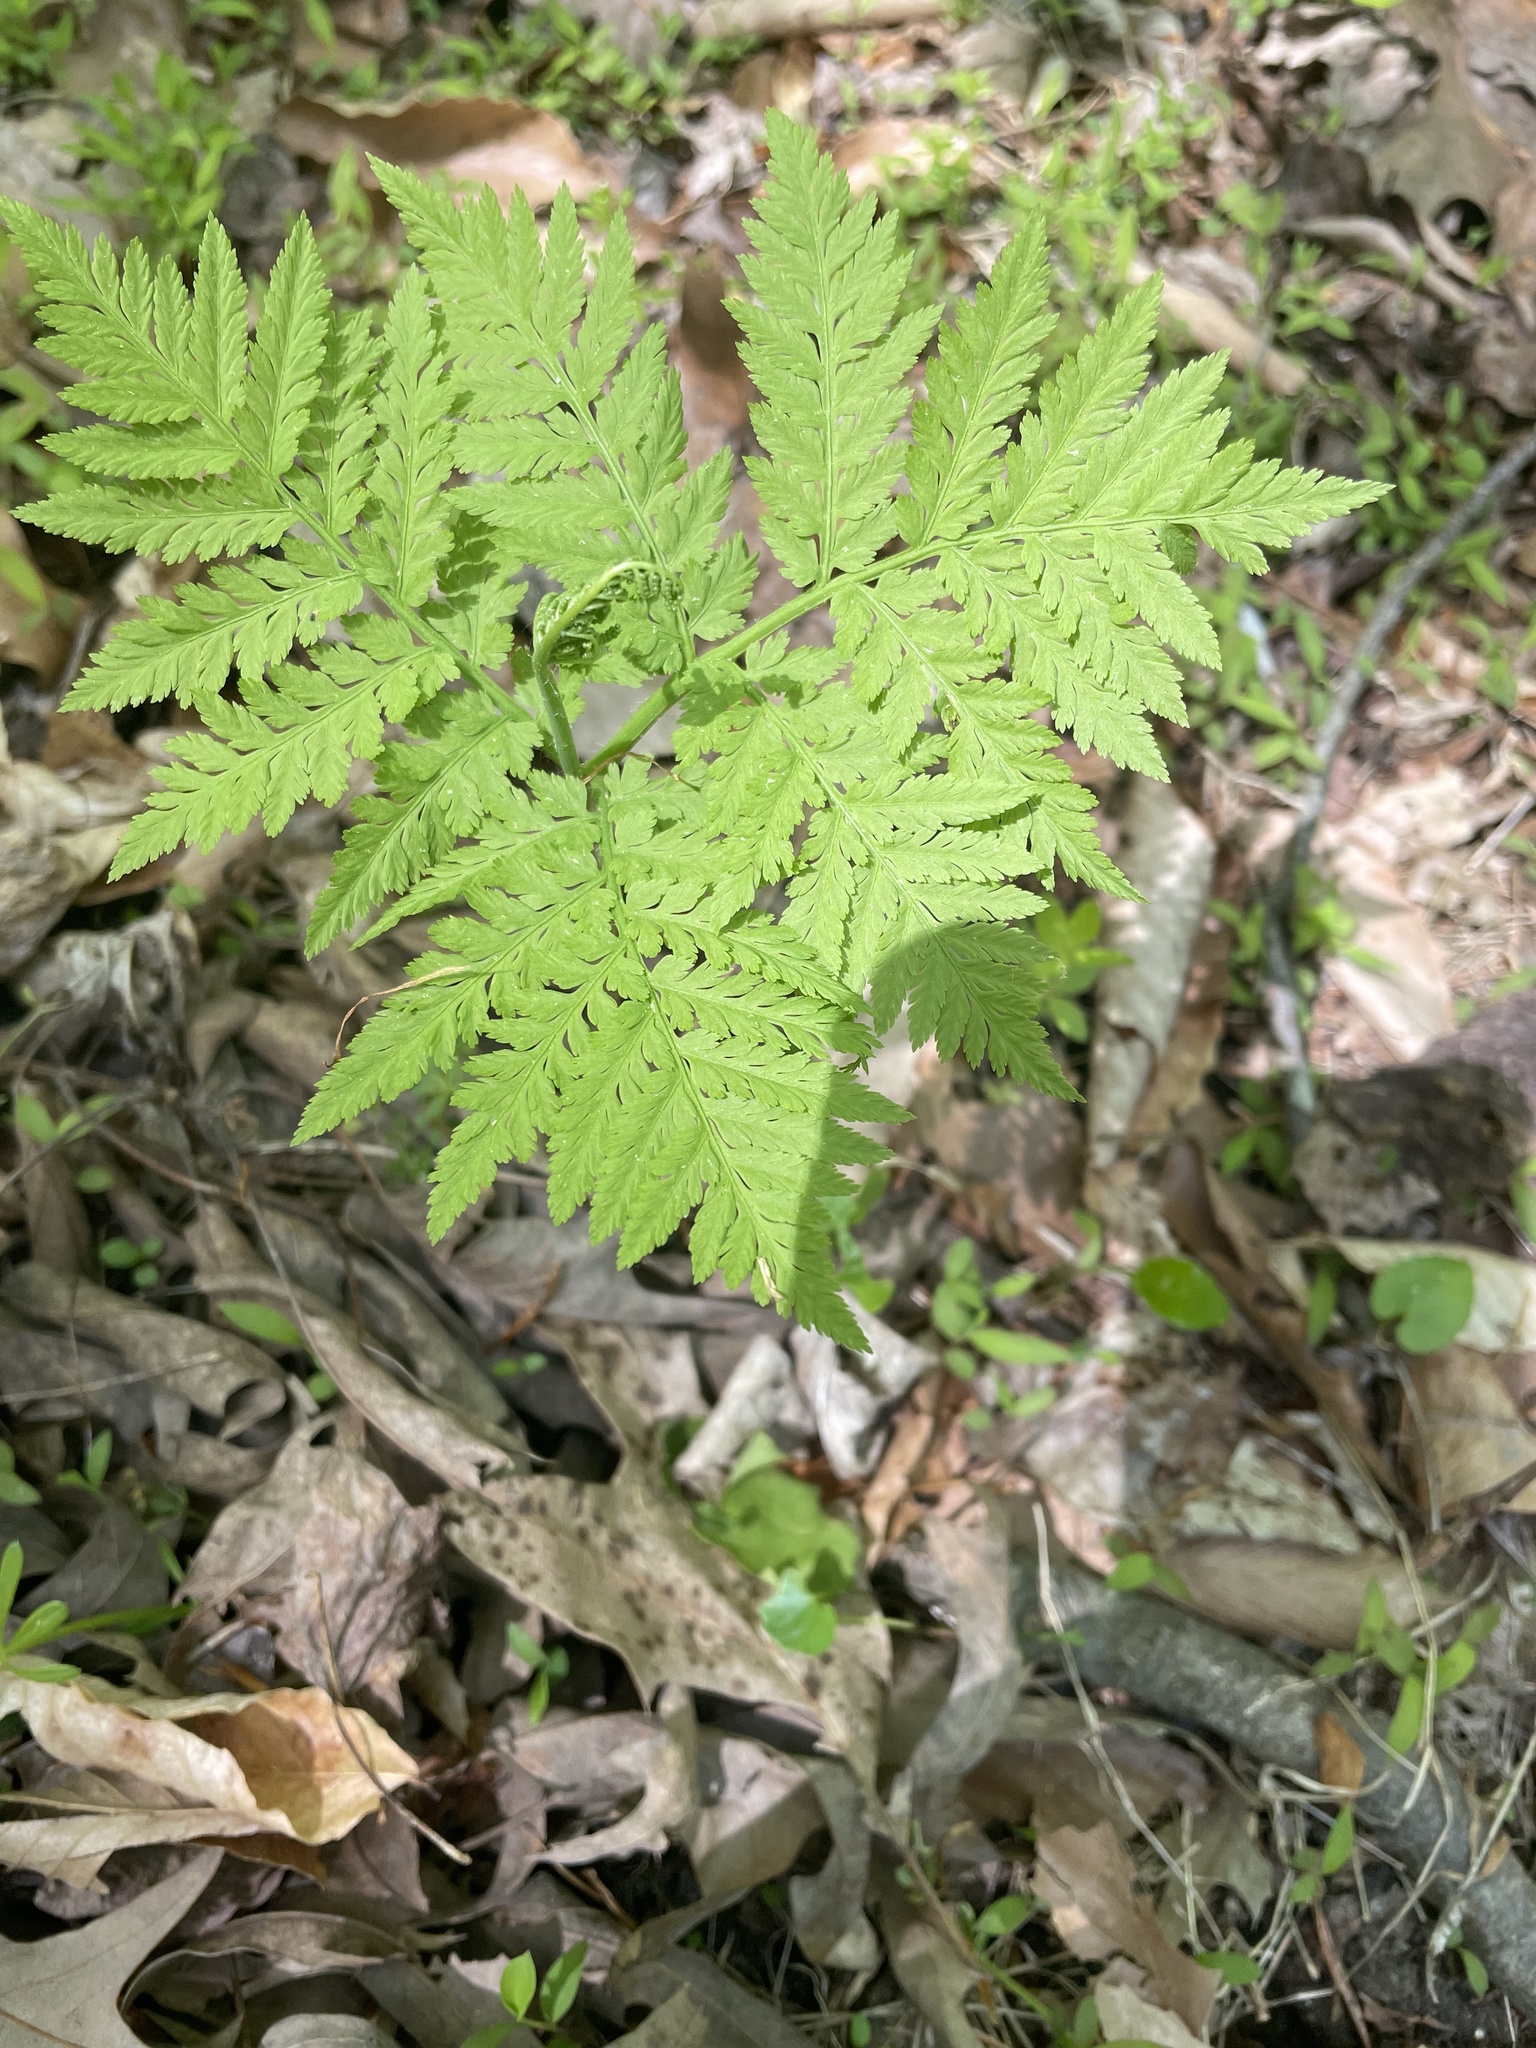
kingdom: Plantae
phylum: Tracheophyta
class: Polypodiopsida
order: Ophioglossales
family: Ophioglossaceae
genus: Botrypus
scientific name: Botrypus virginianus
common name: Common grapefern
